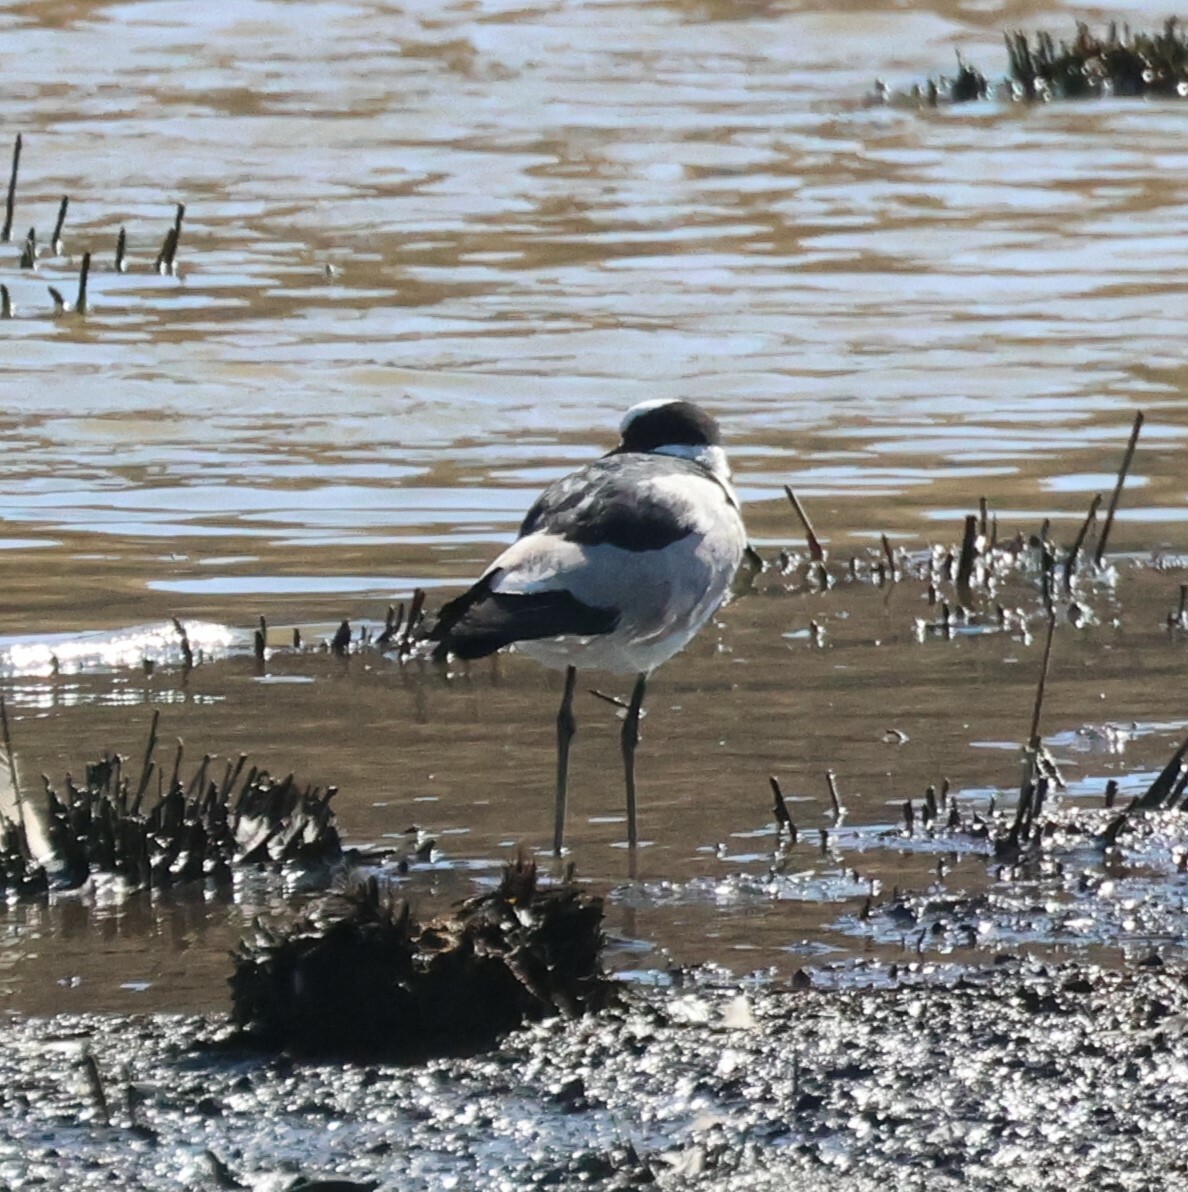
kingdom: Animalia
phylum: Chordata
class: Aves
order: Charadriiformes
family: Charadriidae
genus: Vanellus
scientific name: Vanellus armatus
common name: Blacksmith lapwing
